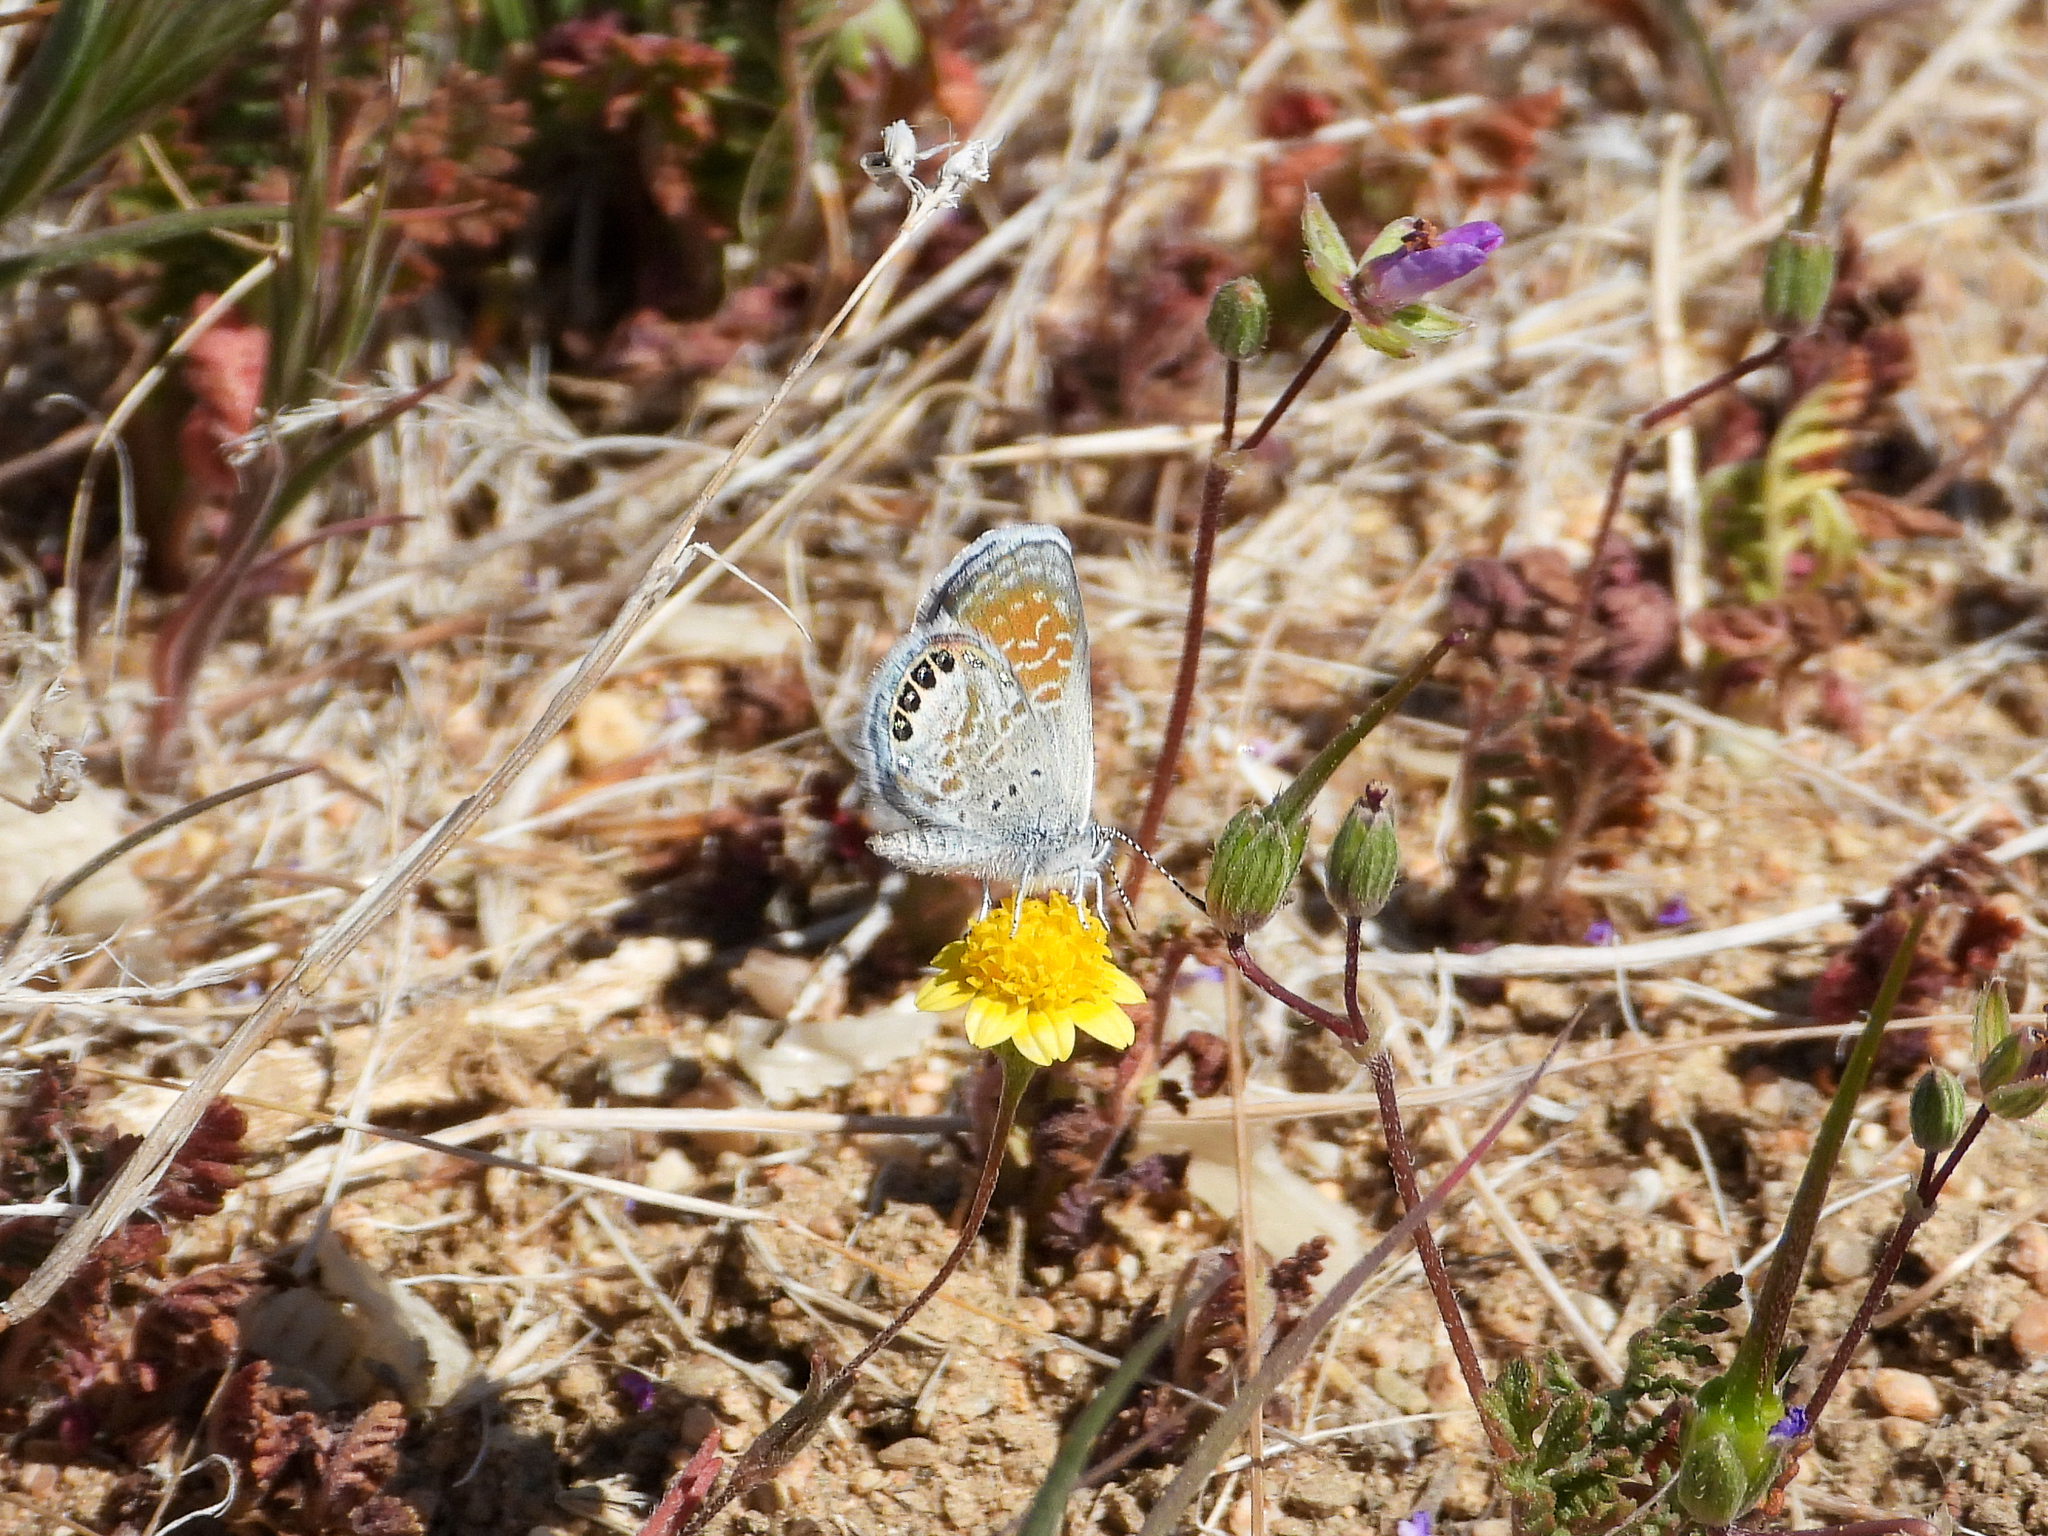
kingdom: Animalia
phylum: Arthropoda
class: Insecta
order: Lepidoptera
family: Lycaenidae
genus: Brephidium
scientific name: Brephidium exilis
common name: Pygmy blue
